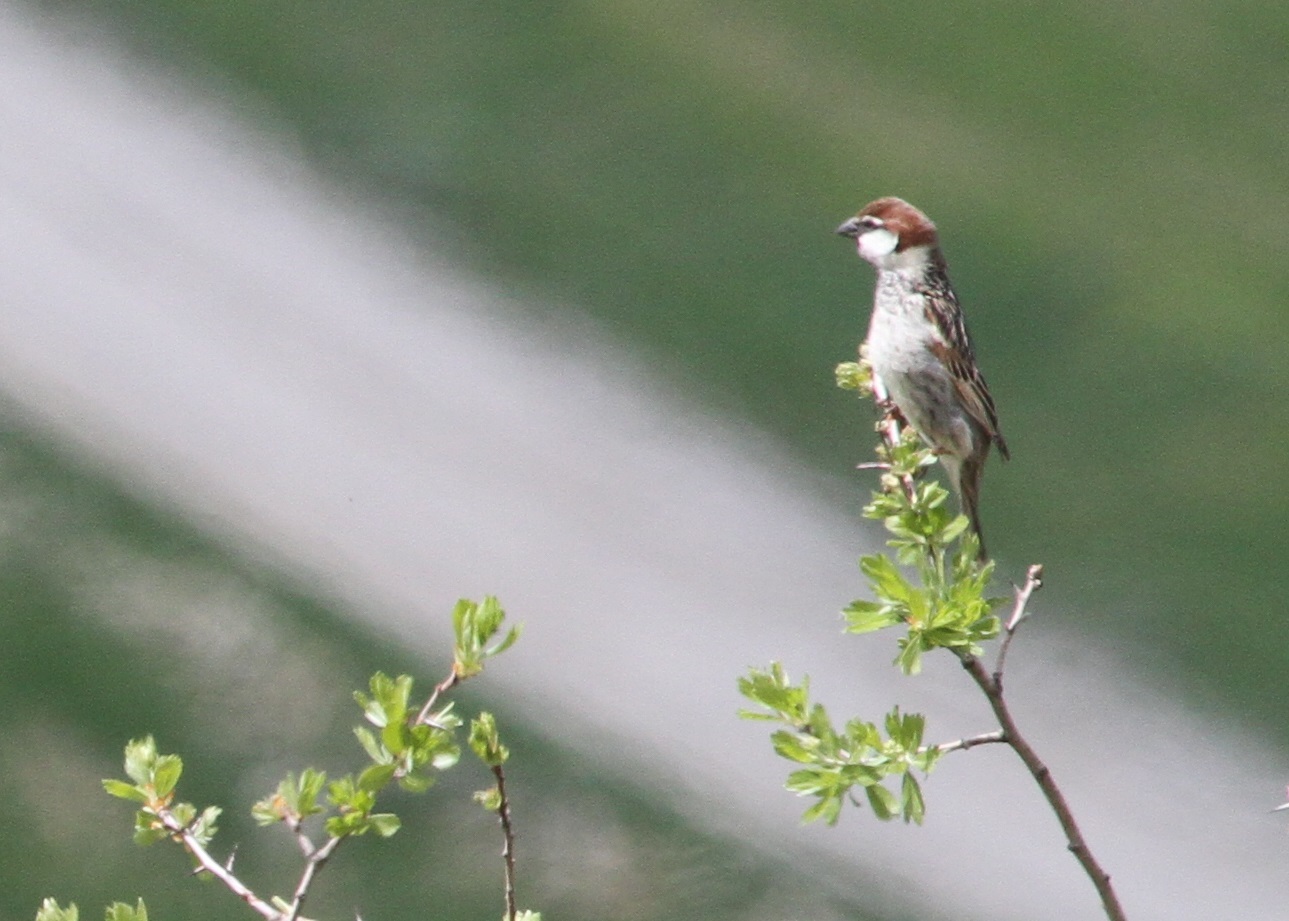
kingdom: Animalia
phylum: Chordata
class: Aves
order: Passeriformes
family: Passeridae
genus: Passer
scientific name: Passer hispaniolensis
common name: Spanish sparrow
